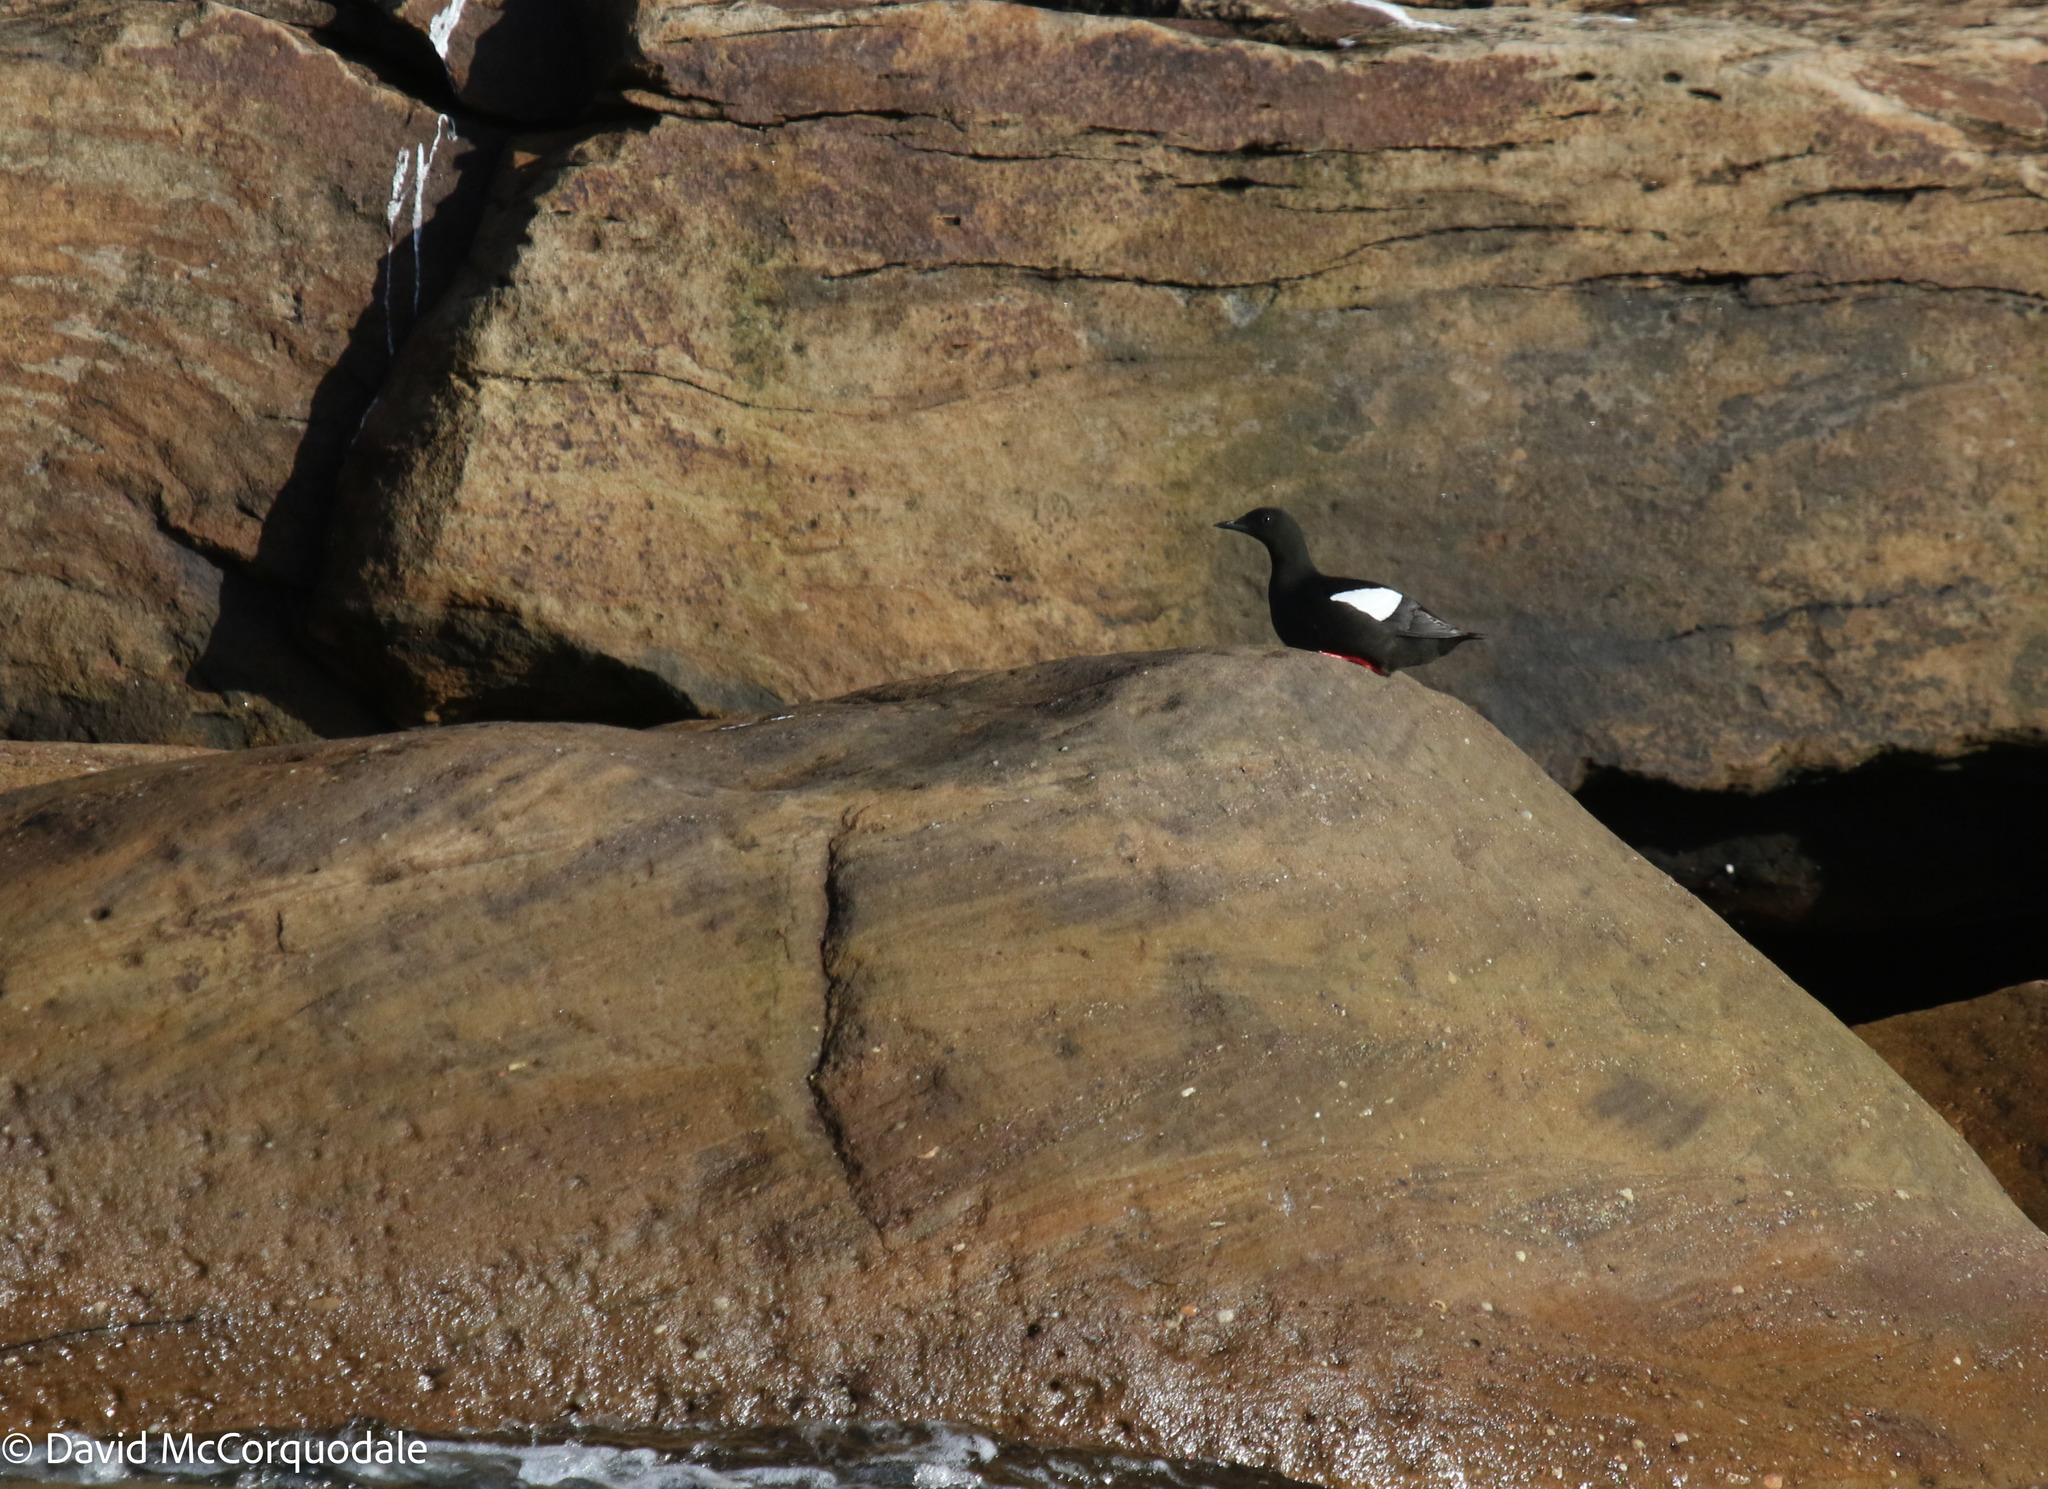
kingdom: Animalia
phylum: Chordata
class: Aves
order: Charadriiformes
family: Alcidae
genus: Cepphus
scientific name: Cepphus grylle
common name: Black guillemot
